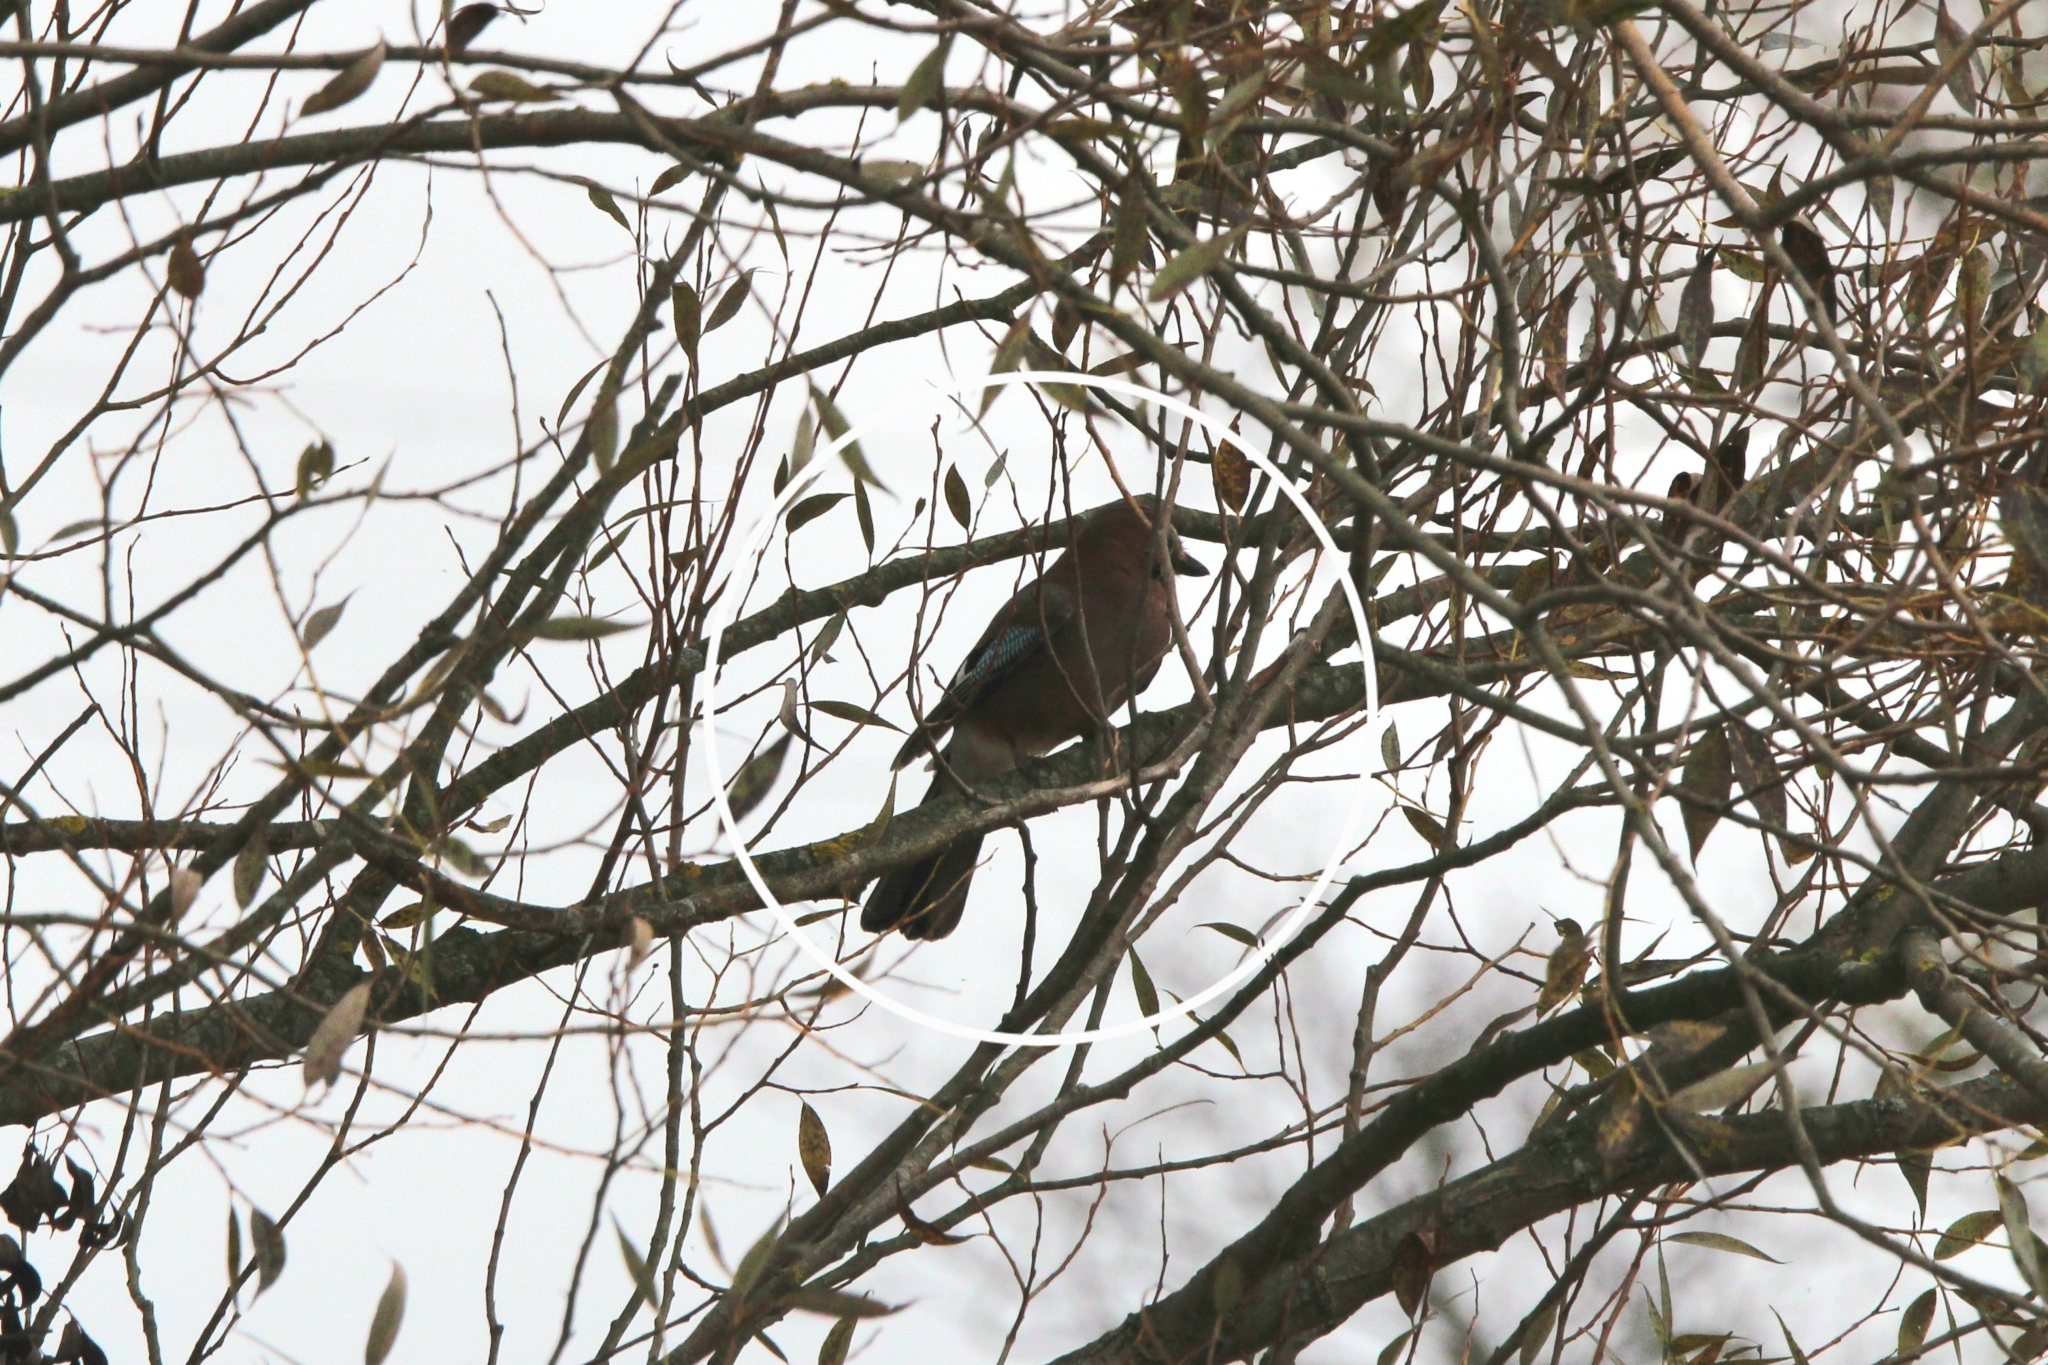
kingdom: Animalia
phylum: Chordata
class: Aves
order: Passeriformes
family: Corvidae
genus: Garrulus
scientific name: Garrulus glandarius
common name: Eurasian jay
